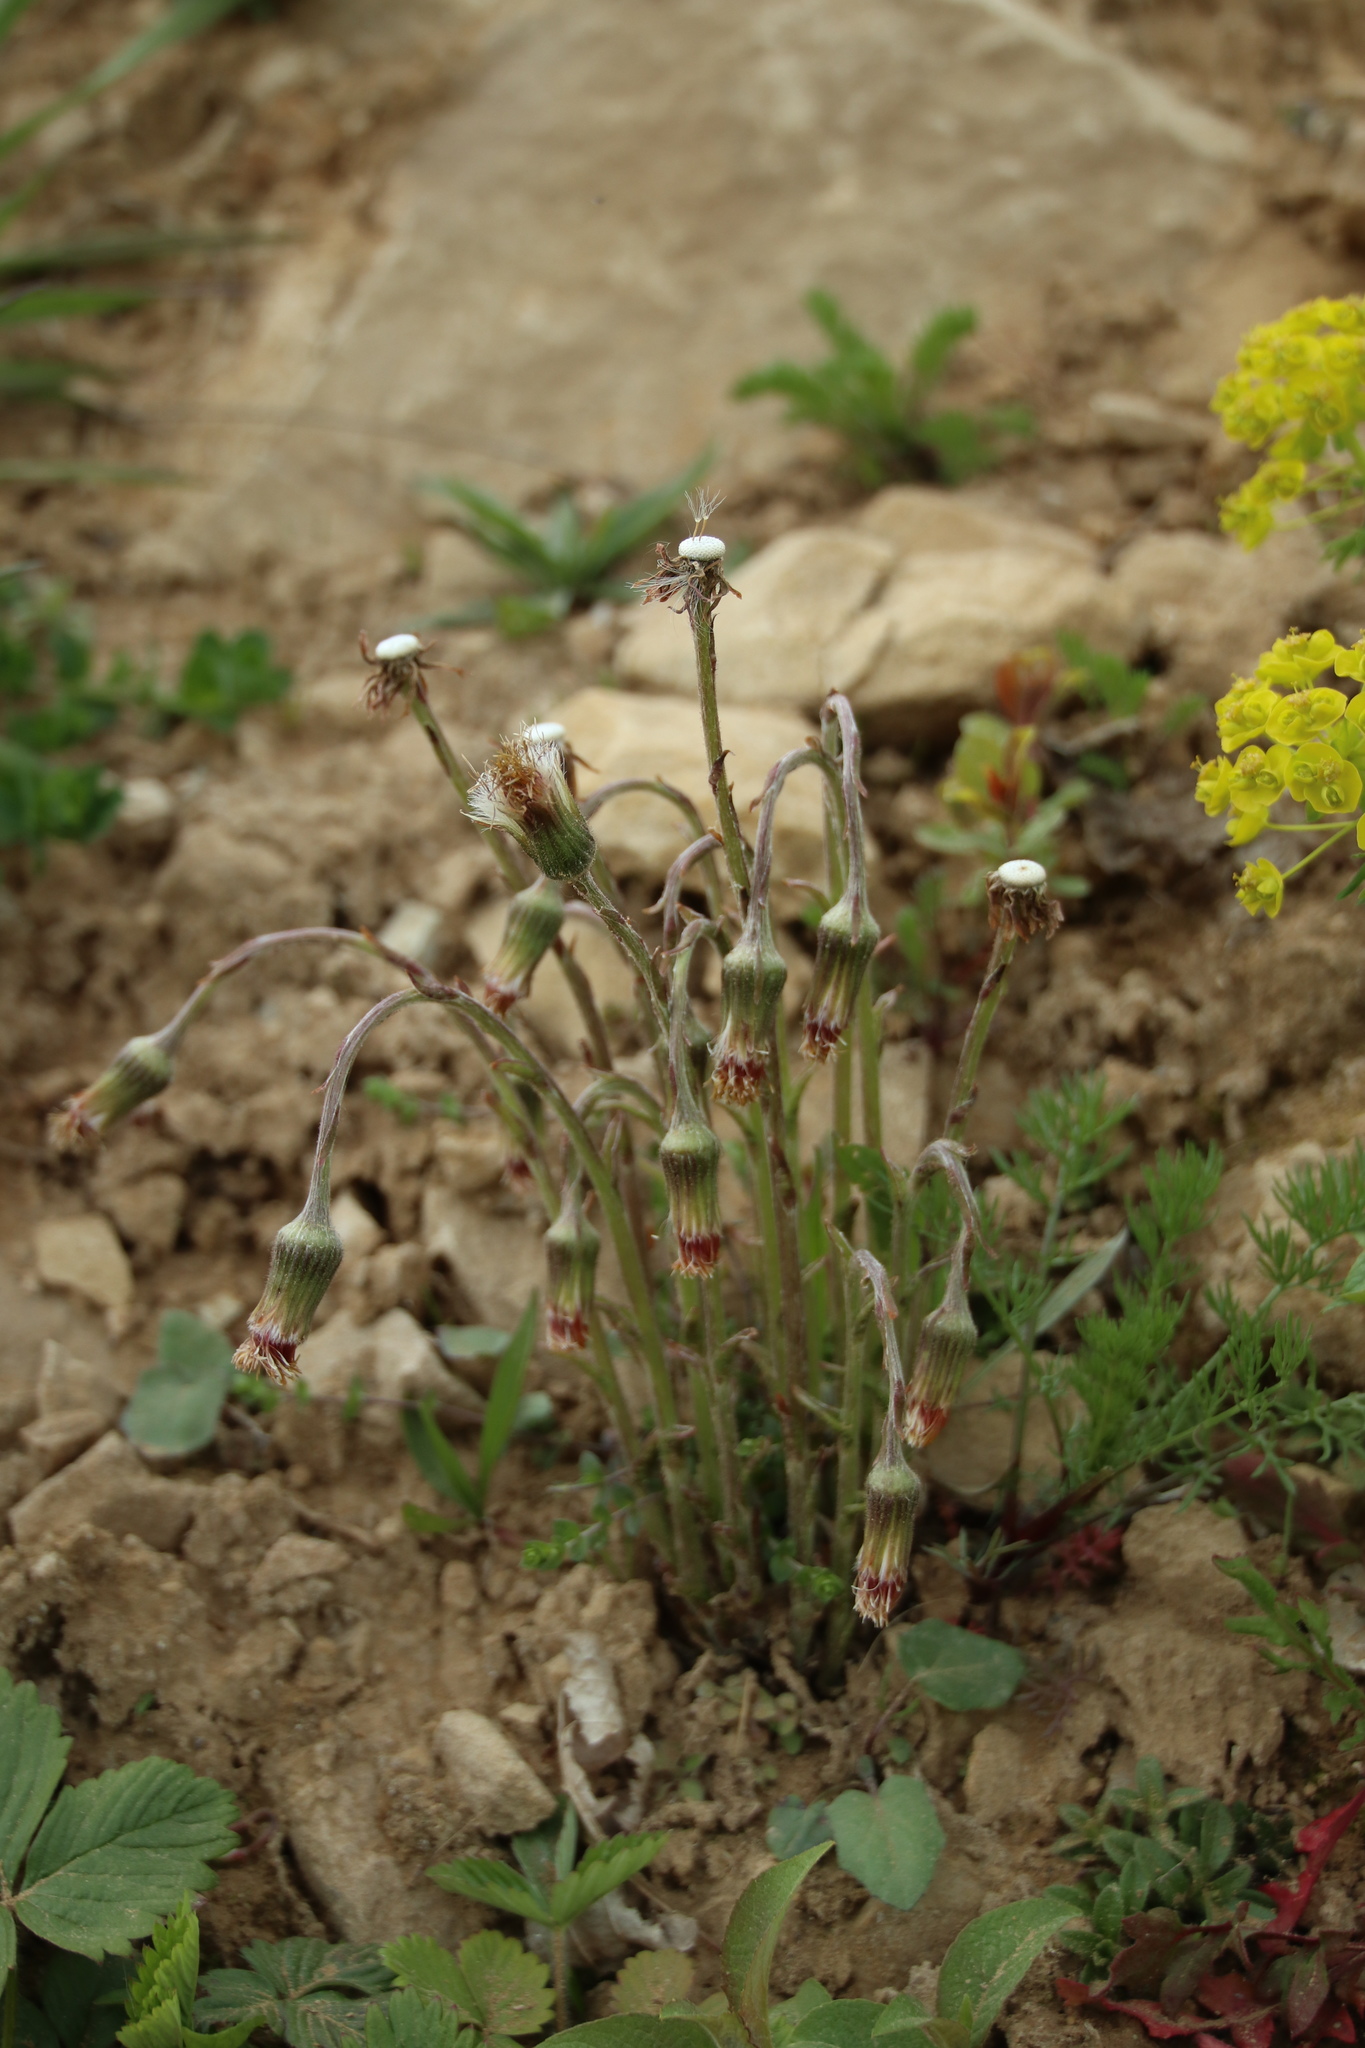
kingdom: Plantae
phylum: Tracheophyta
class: Magnoliopsida
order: Asterales
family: Asteraceae
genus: Tussilago
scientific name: Tussilago farfara
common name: Coltsfoot
